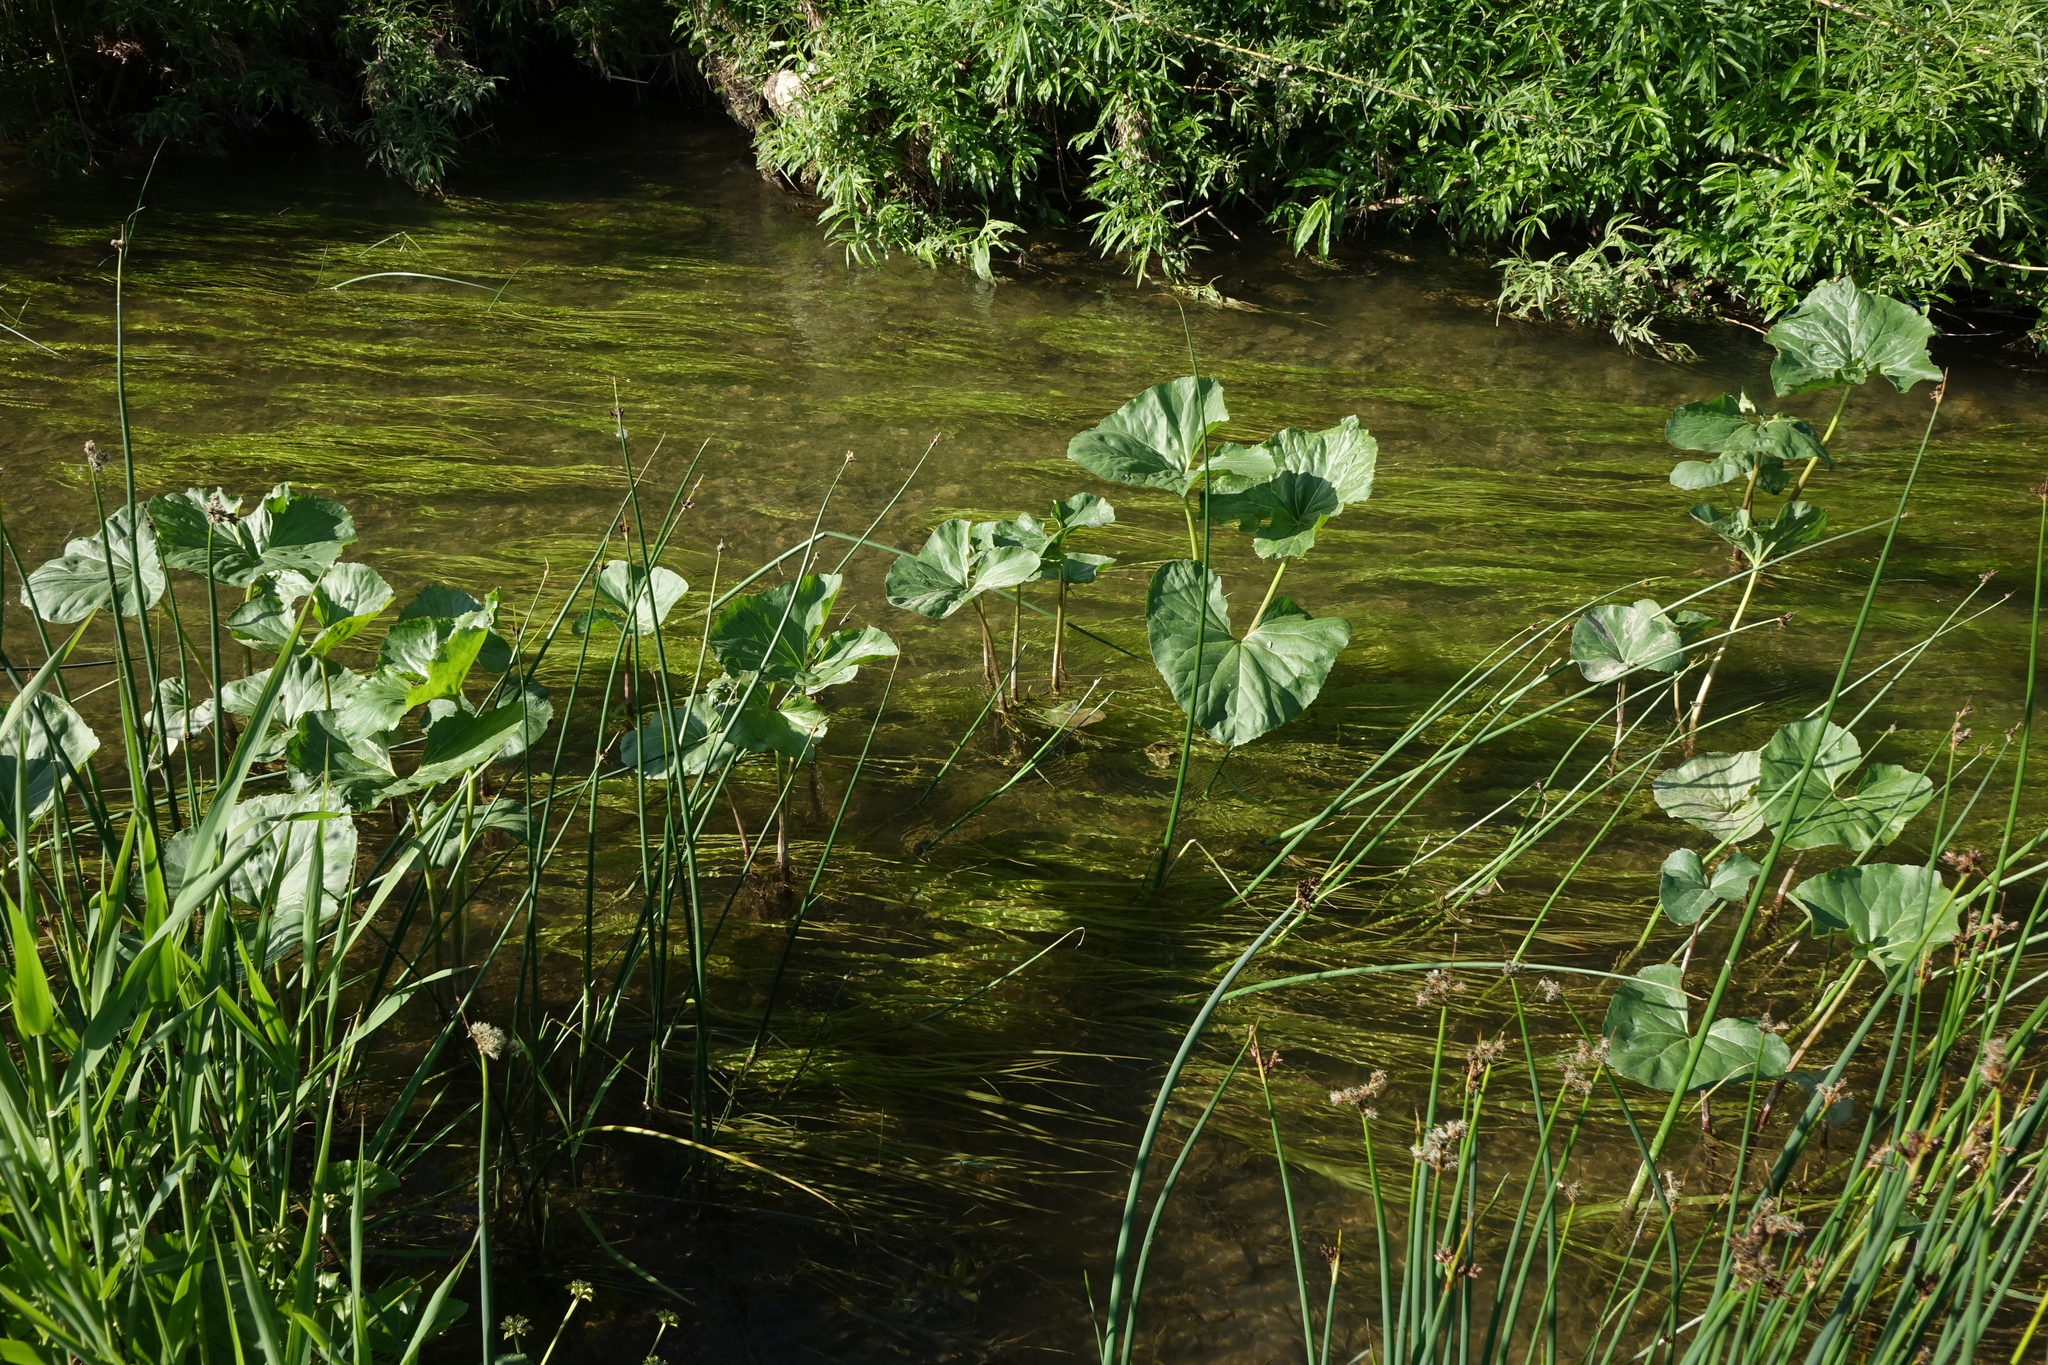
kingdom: Plantae
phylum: Tracheophyta
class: Magnoliopsida
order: Asterales
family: Asteraceae
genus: Petasites
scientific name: Petasites radiatus
